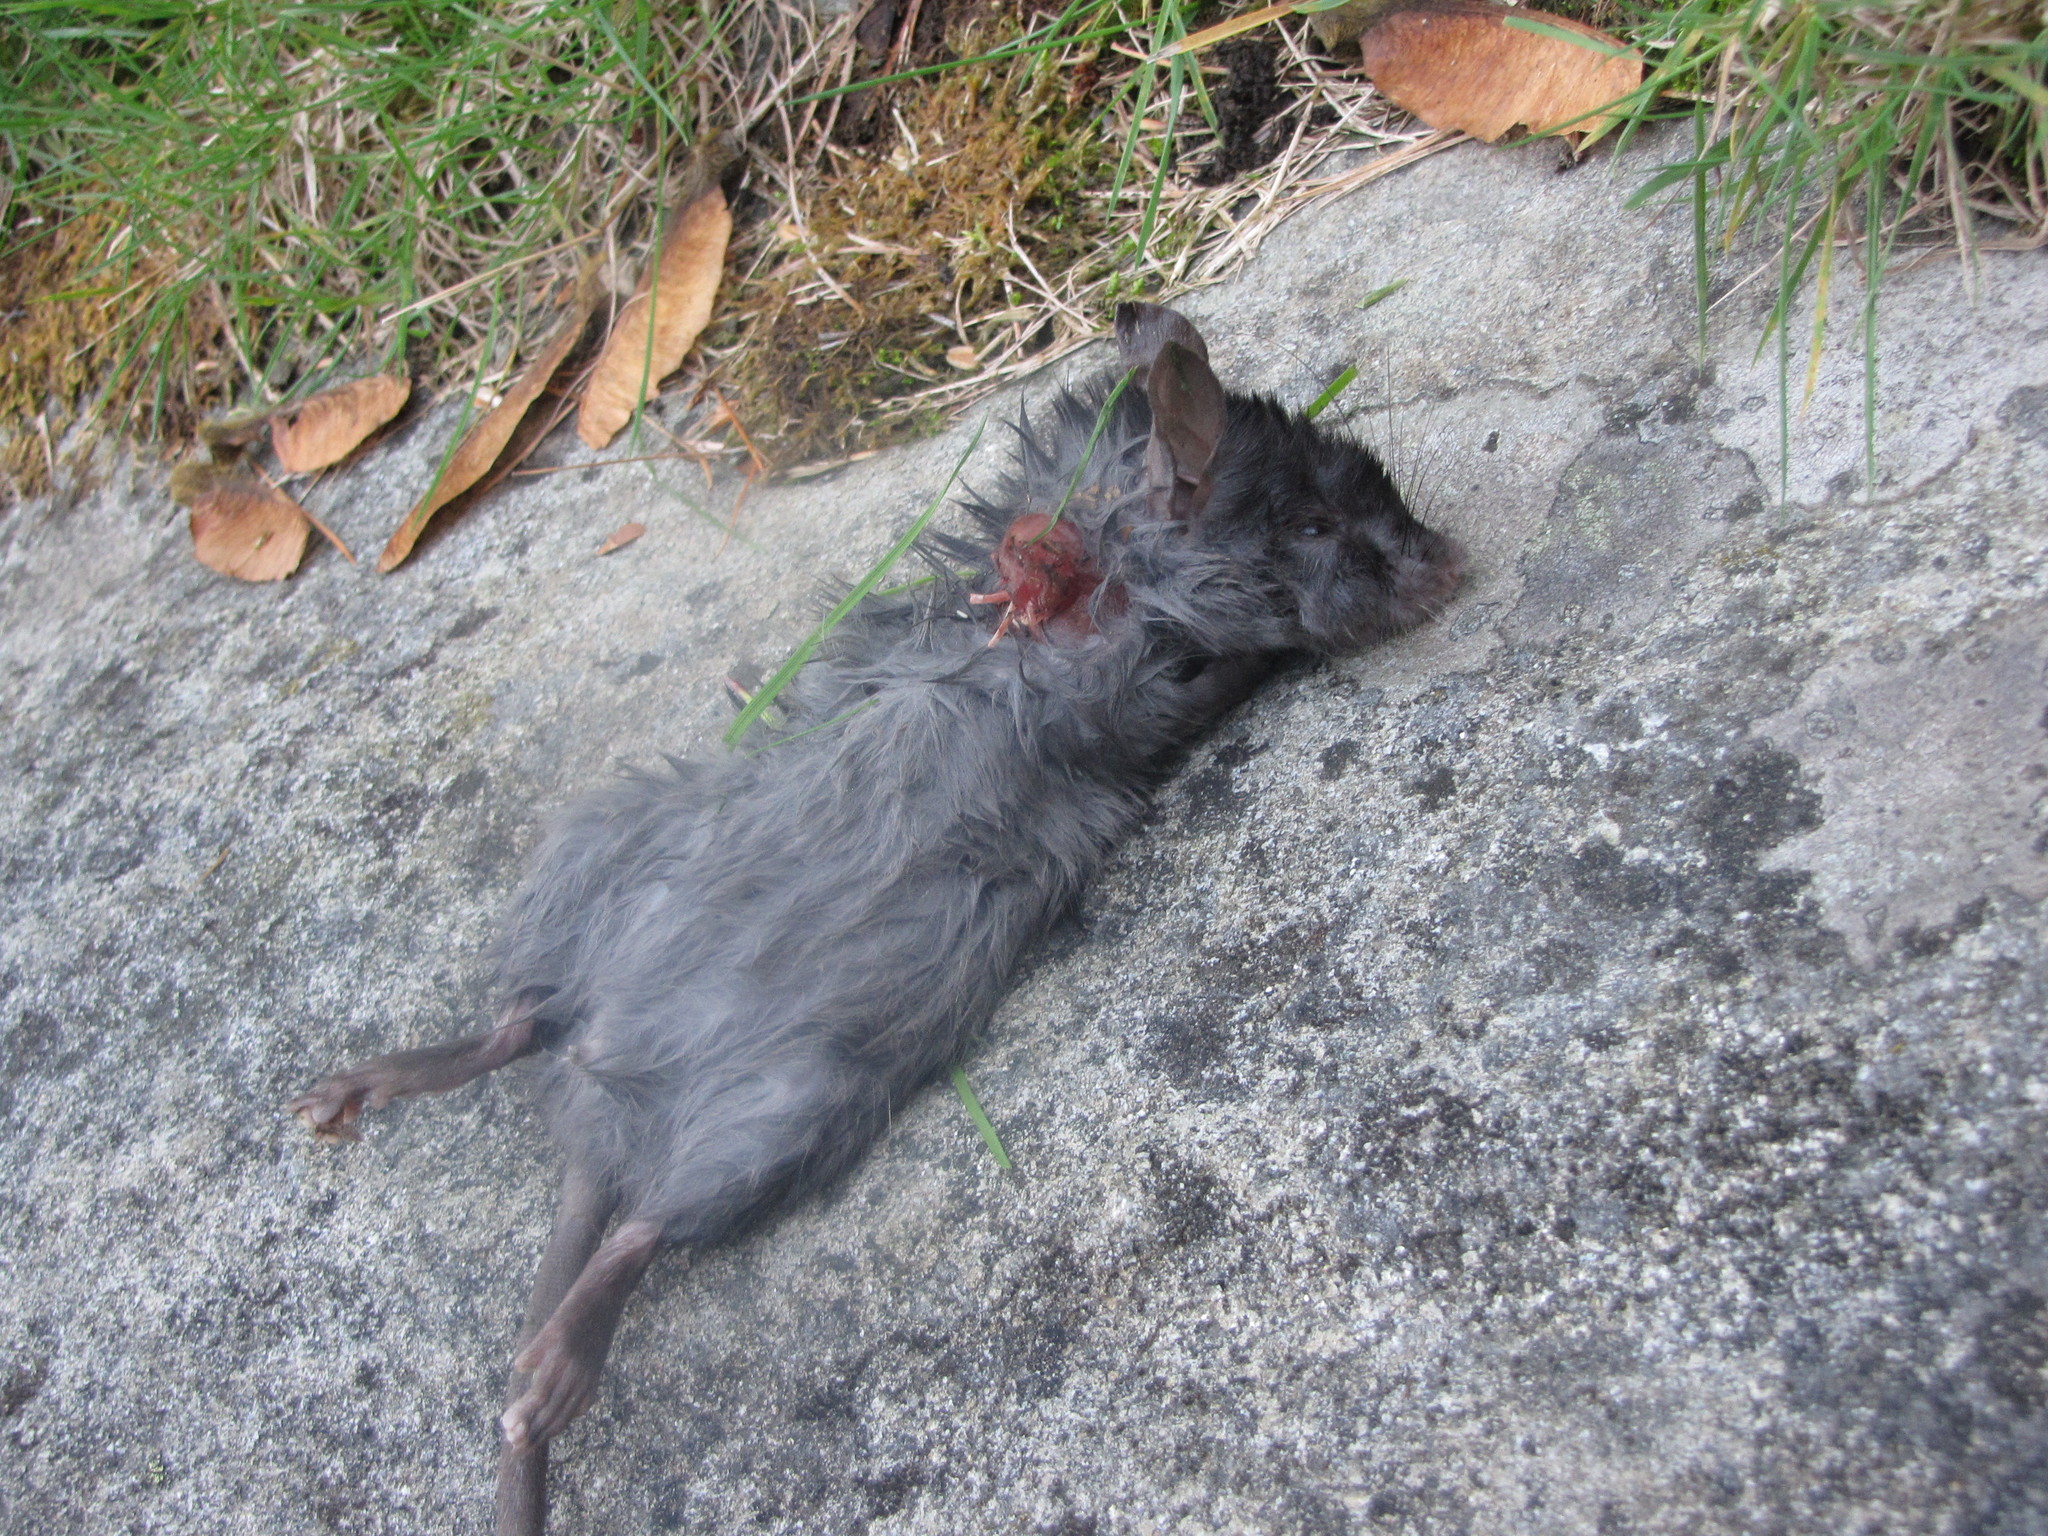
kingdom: Animalia
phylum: Chordata
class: Mammalia
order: Rodentia
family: Muridae
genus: Rattus
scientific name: Rattus rattus
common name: Black rat
